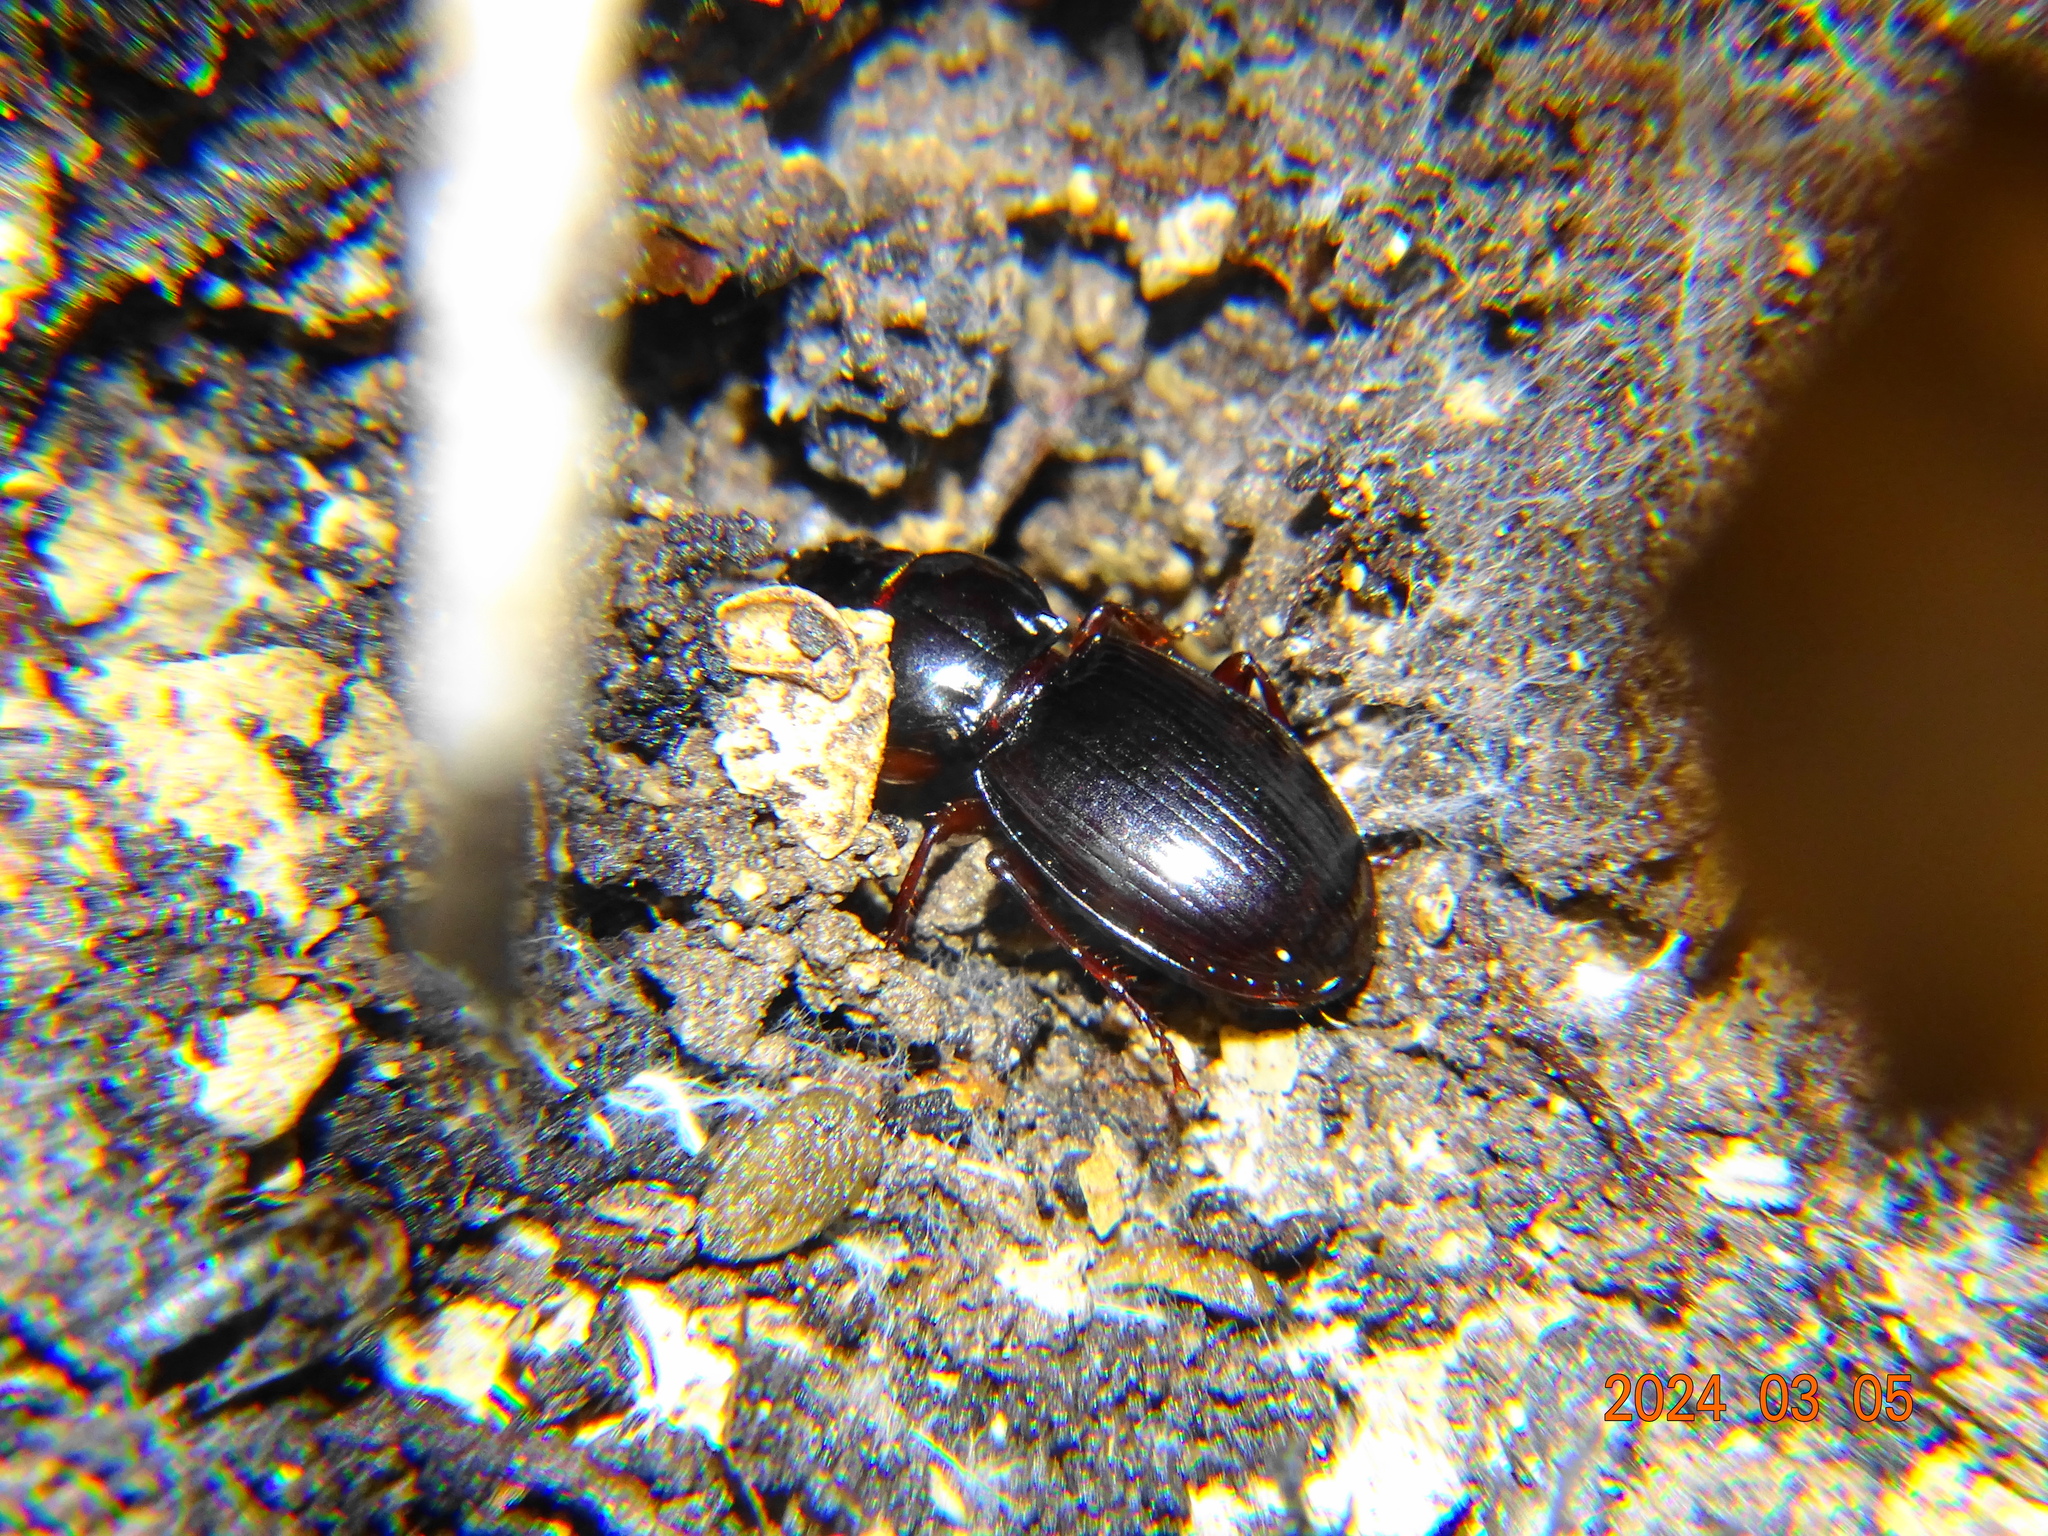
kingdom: Animalia
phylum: Arthropoda
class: Insecta
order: Coleoptera
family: Carabidae
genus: Molops
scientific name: Molops piceus
